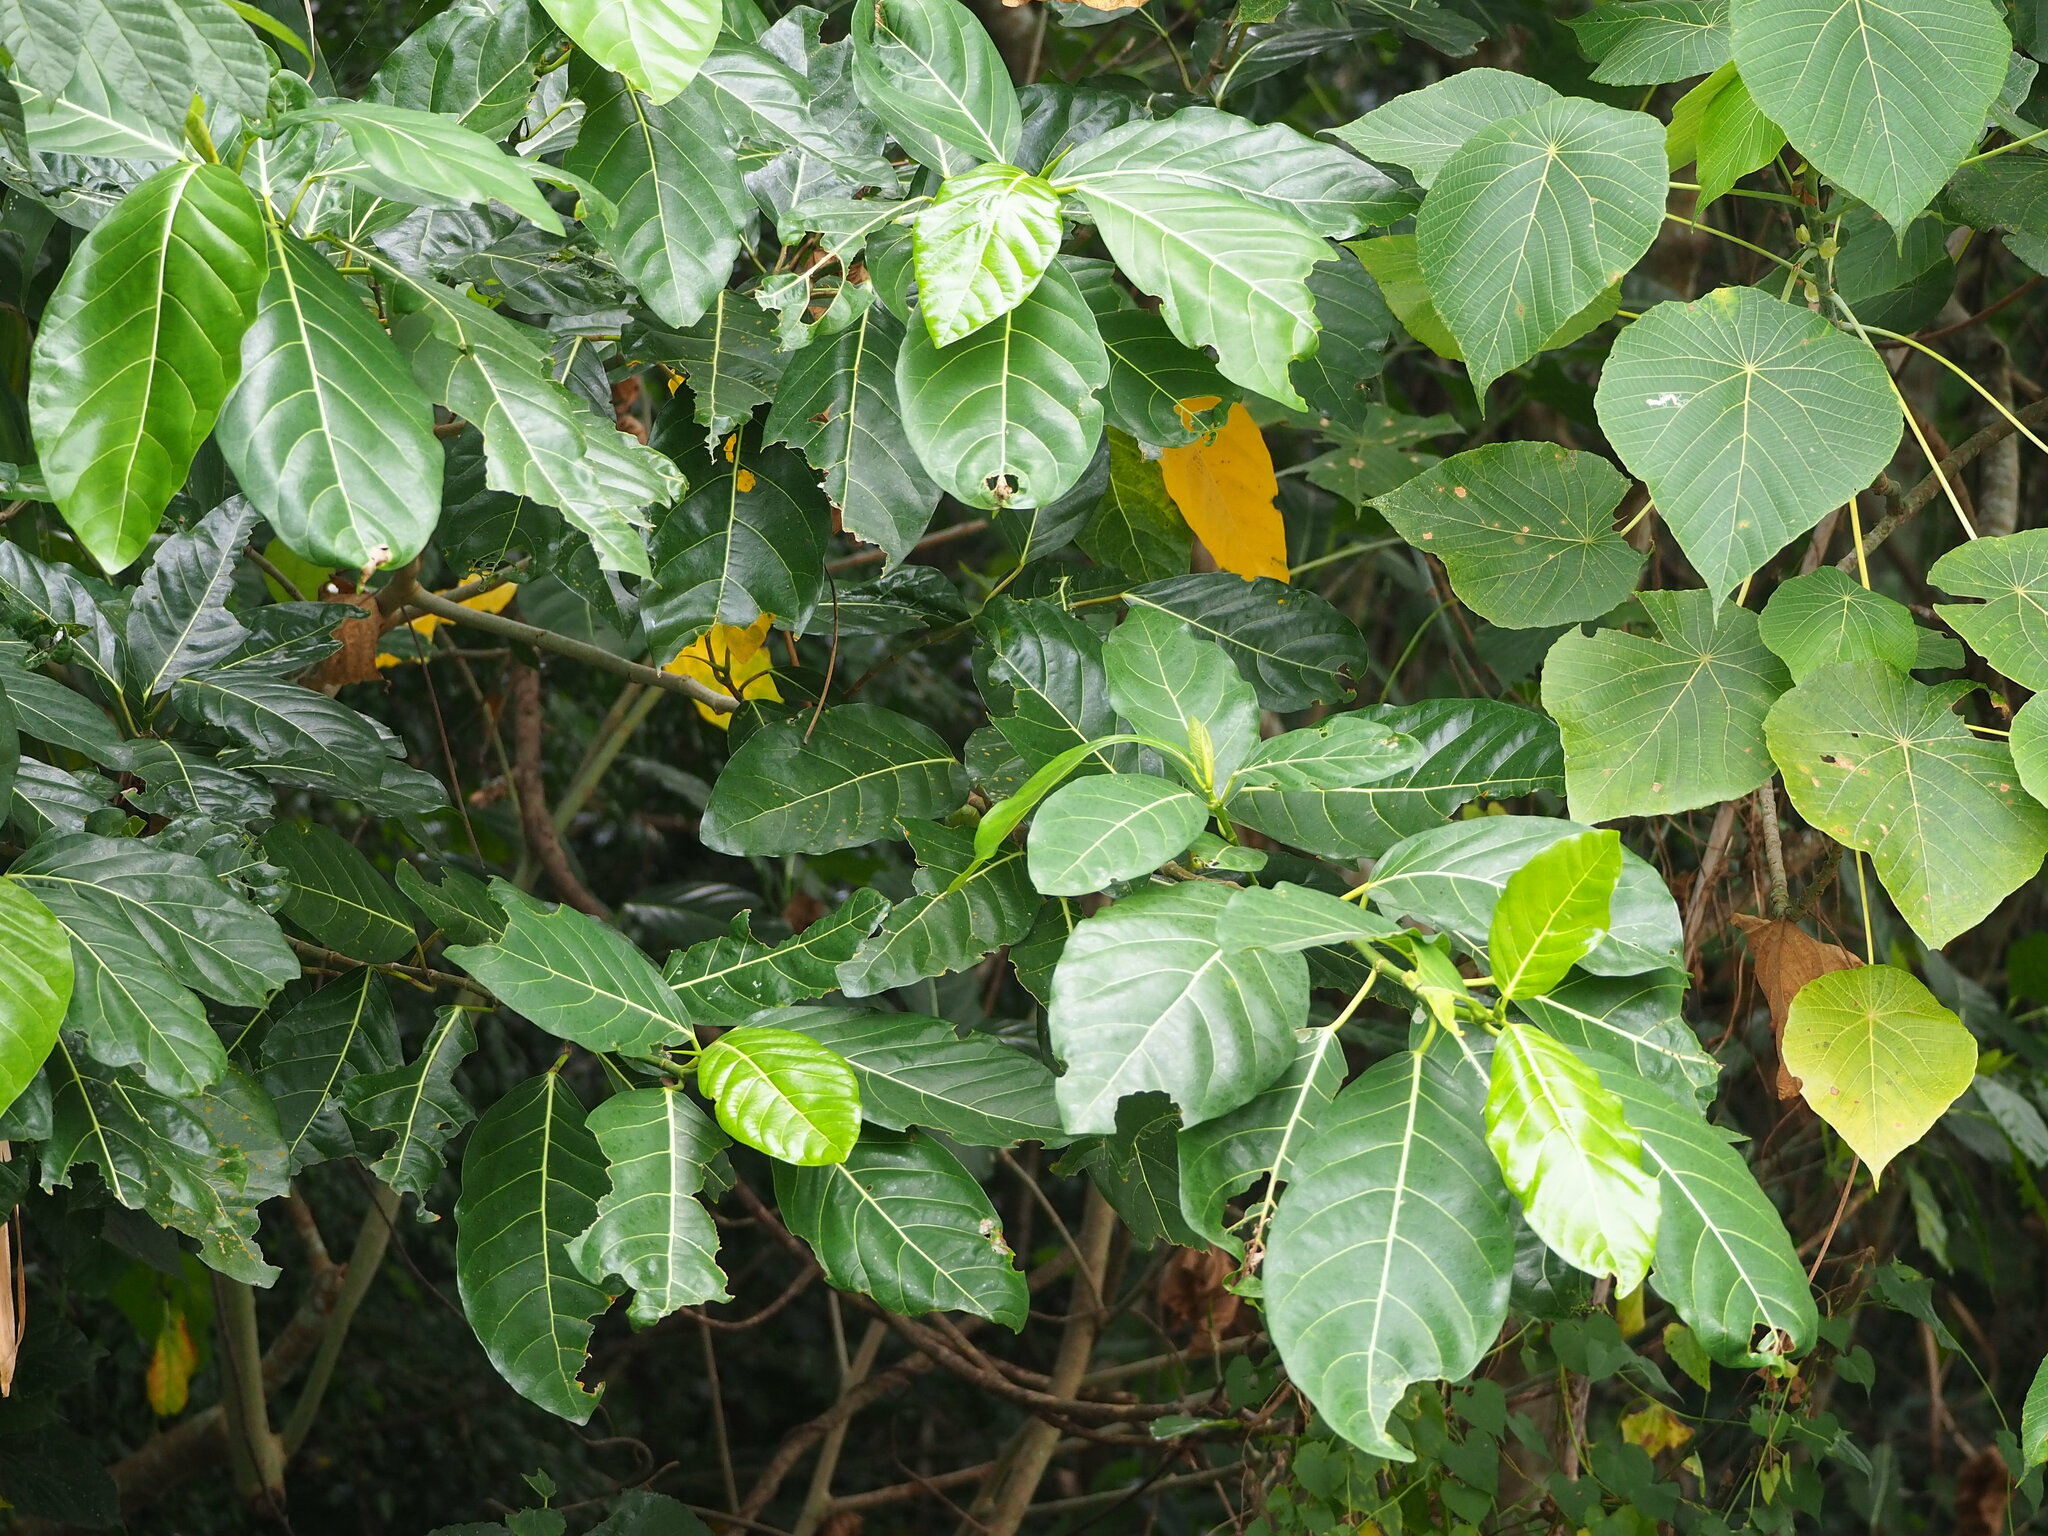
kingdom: Plantae
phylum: Tracheophyta
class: Magnoliopsida
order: Rosales
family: Moraceae
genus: Ficus
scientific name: Ficus septica
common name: Septic fig
